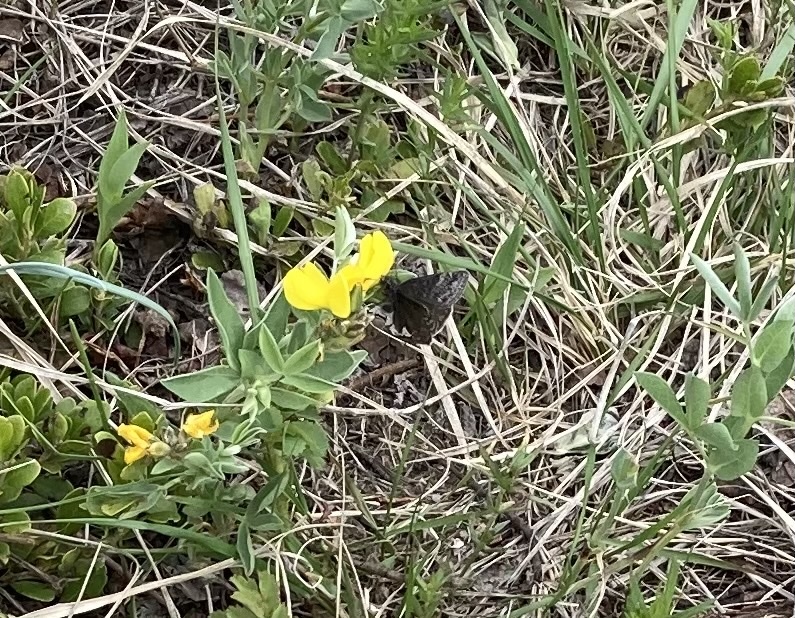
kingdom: Animalia
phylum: Arthropoda
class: Insecta
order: Lepidoptera
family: Hesperiidae
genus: Erynnis
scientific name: Erynnis persius
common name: Persius duskywing
